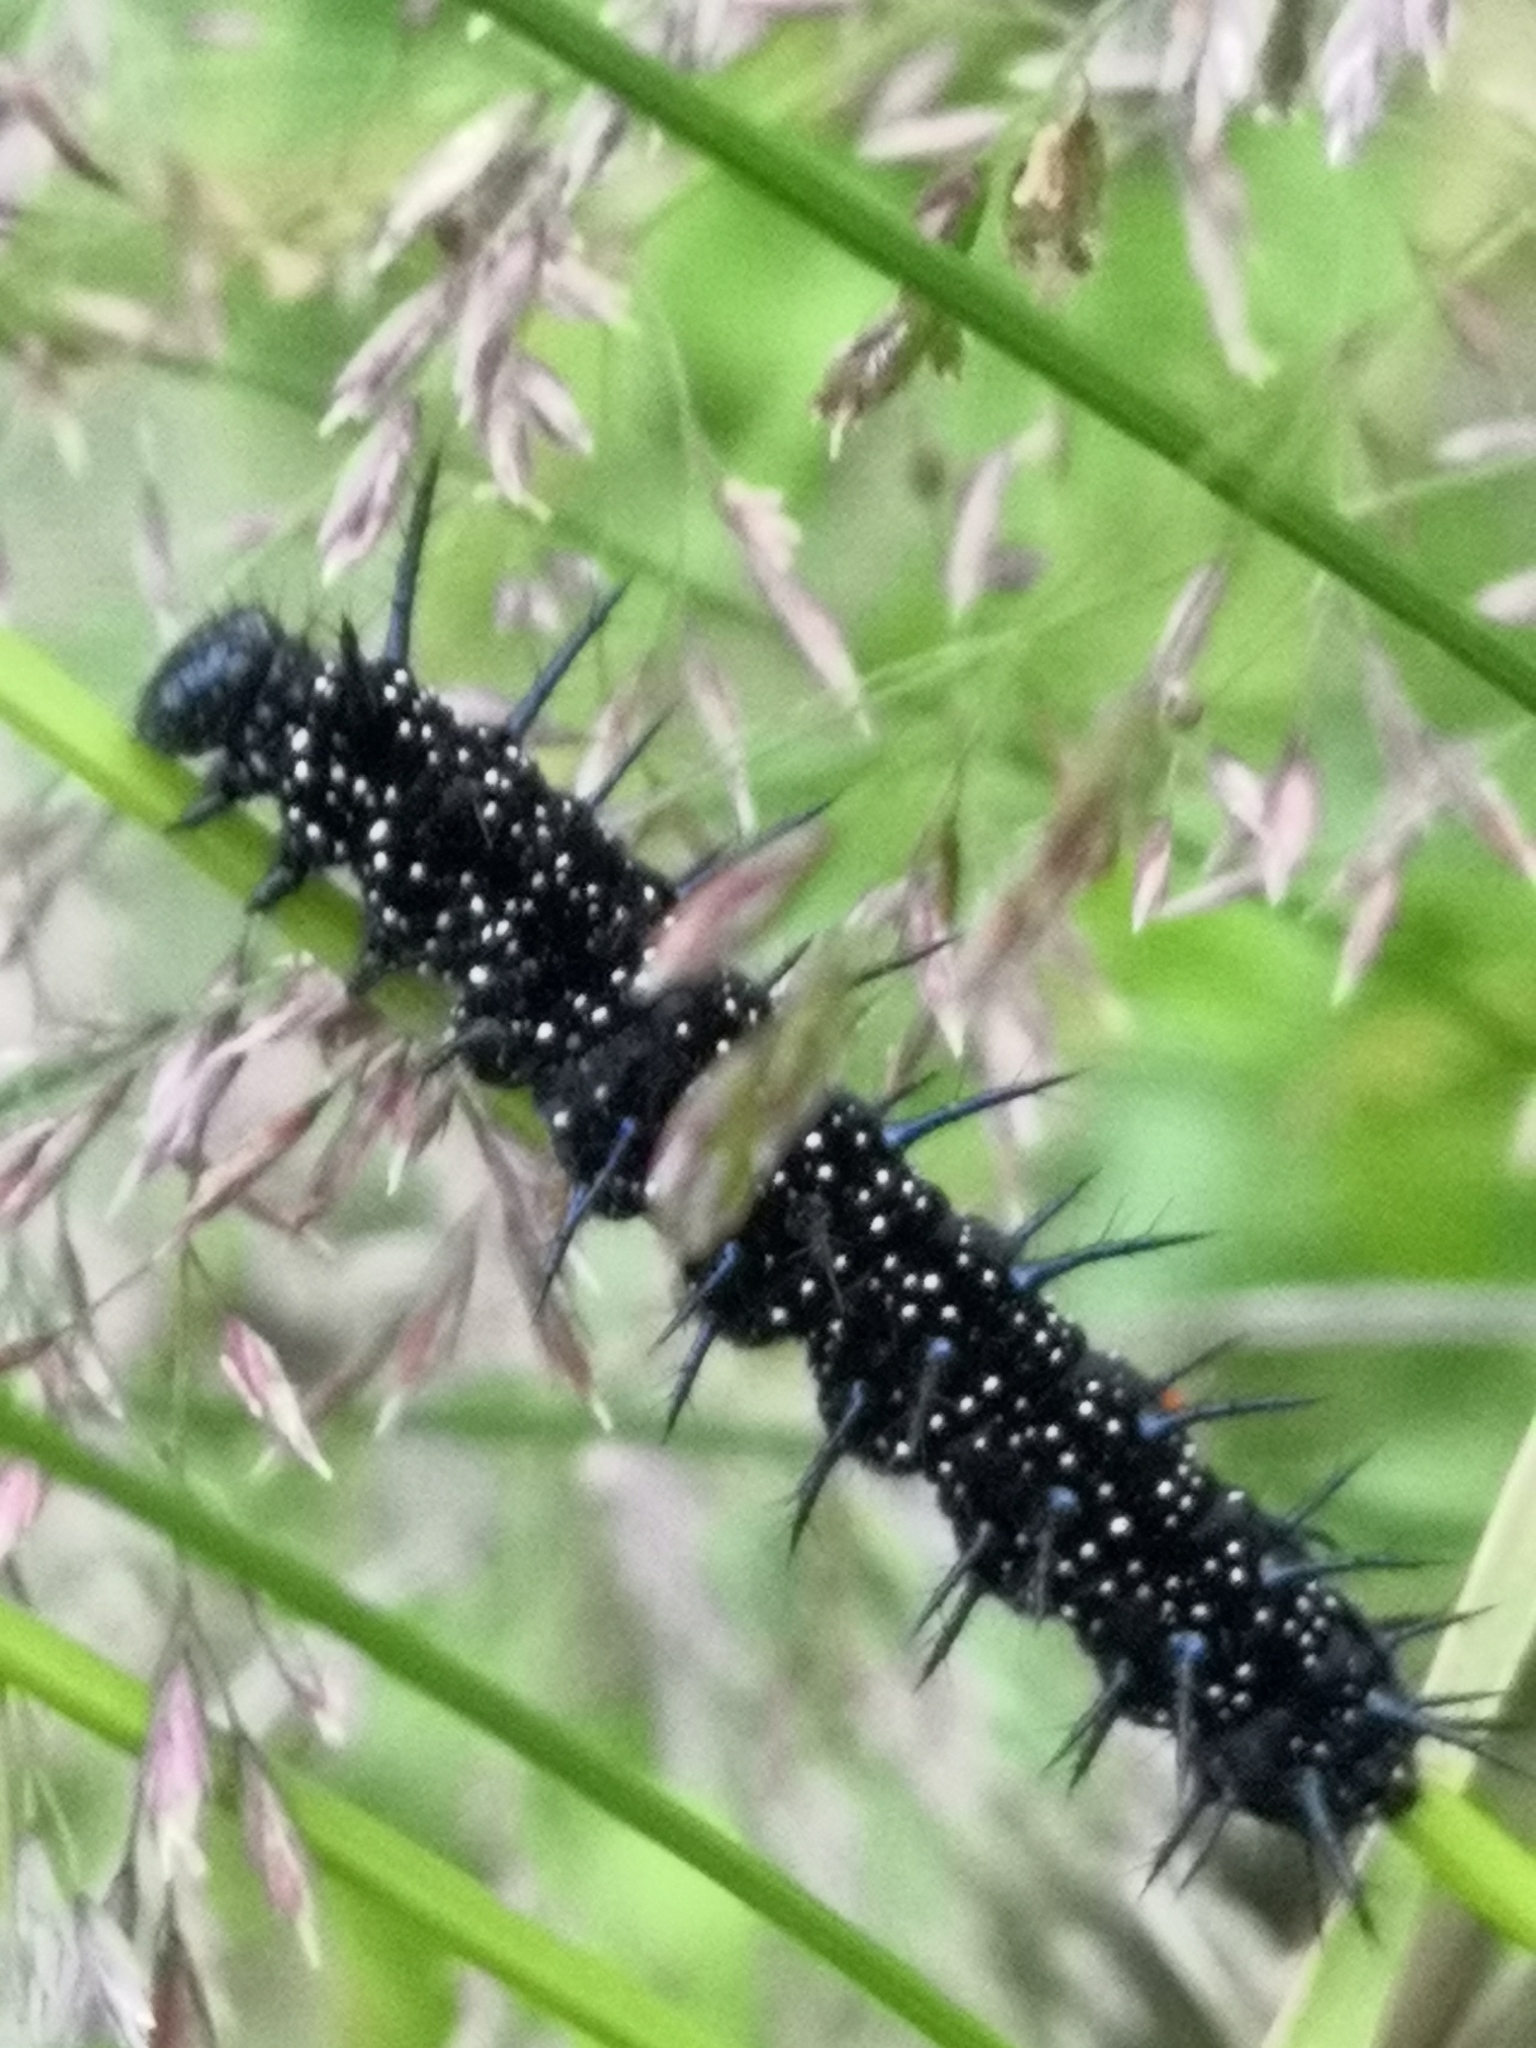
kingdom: Animalia
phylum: Arthropoda
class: Insecta
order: Lepidoptera
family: Nymphalidae
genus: Aglais
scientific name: Aglais io
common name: Peacock
